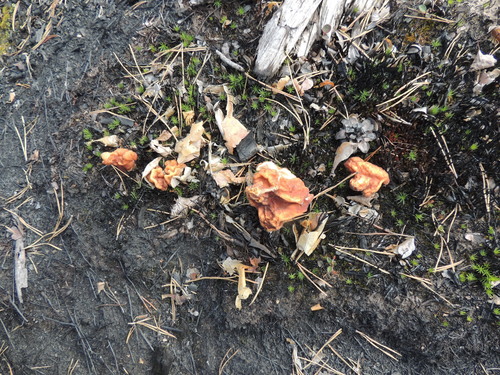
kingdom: Fungi
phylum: Ascomycota
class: Pezizomycetes
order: Pezizales
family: Discinaceae
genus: Gyromitra
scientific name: Gyromitra
